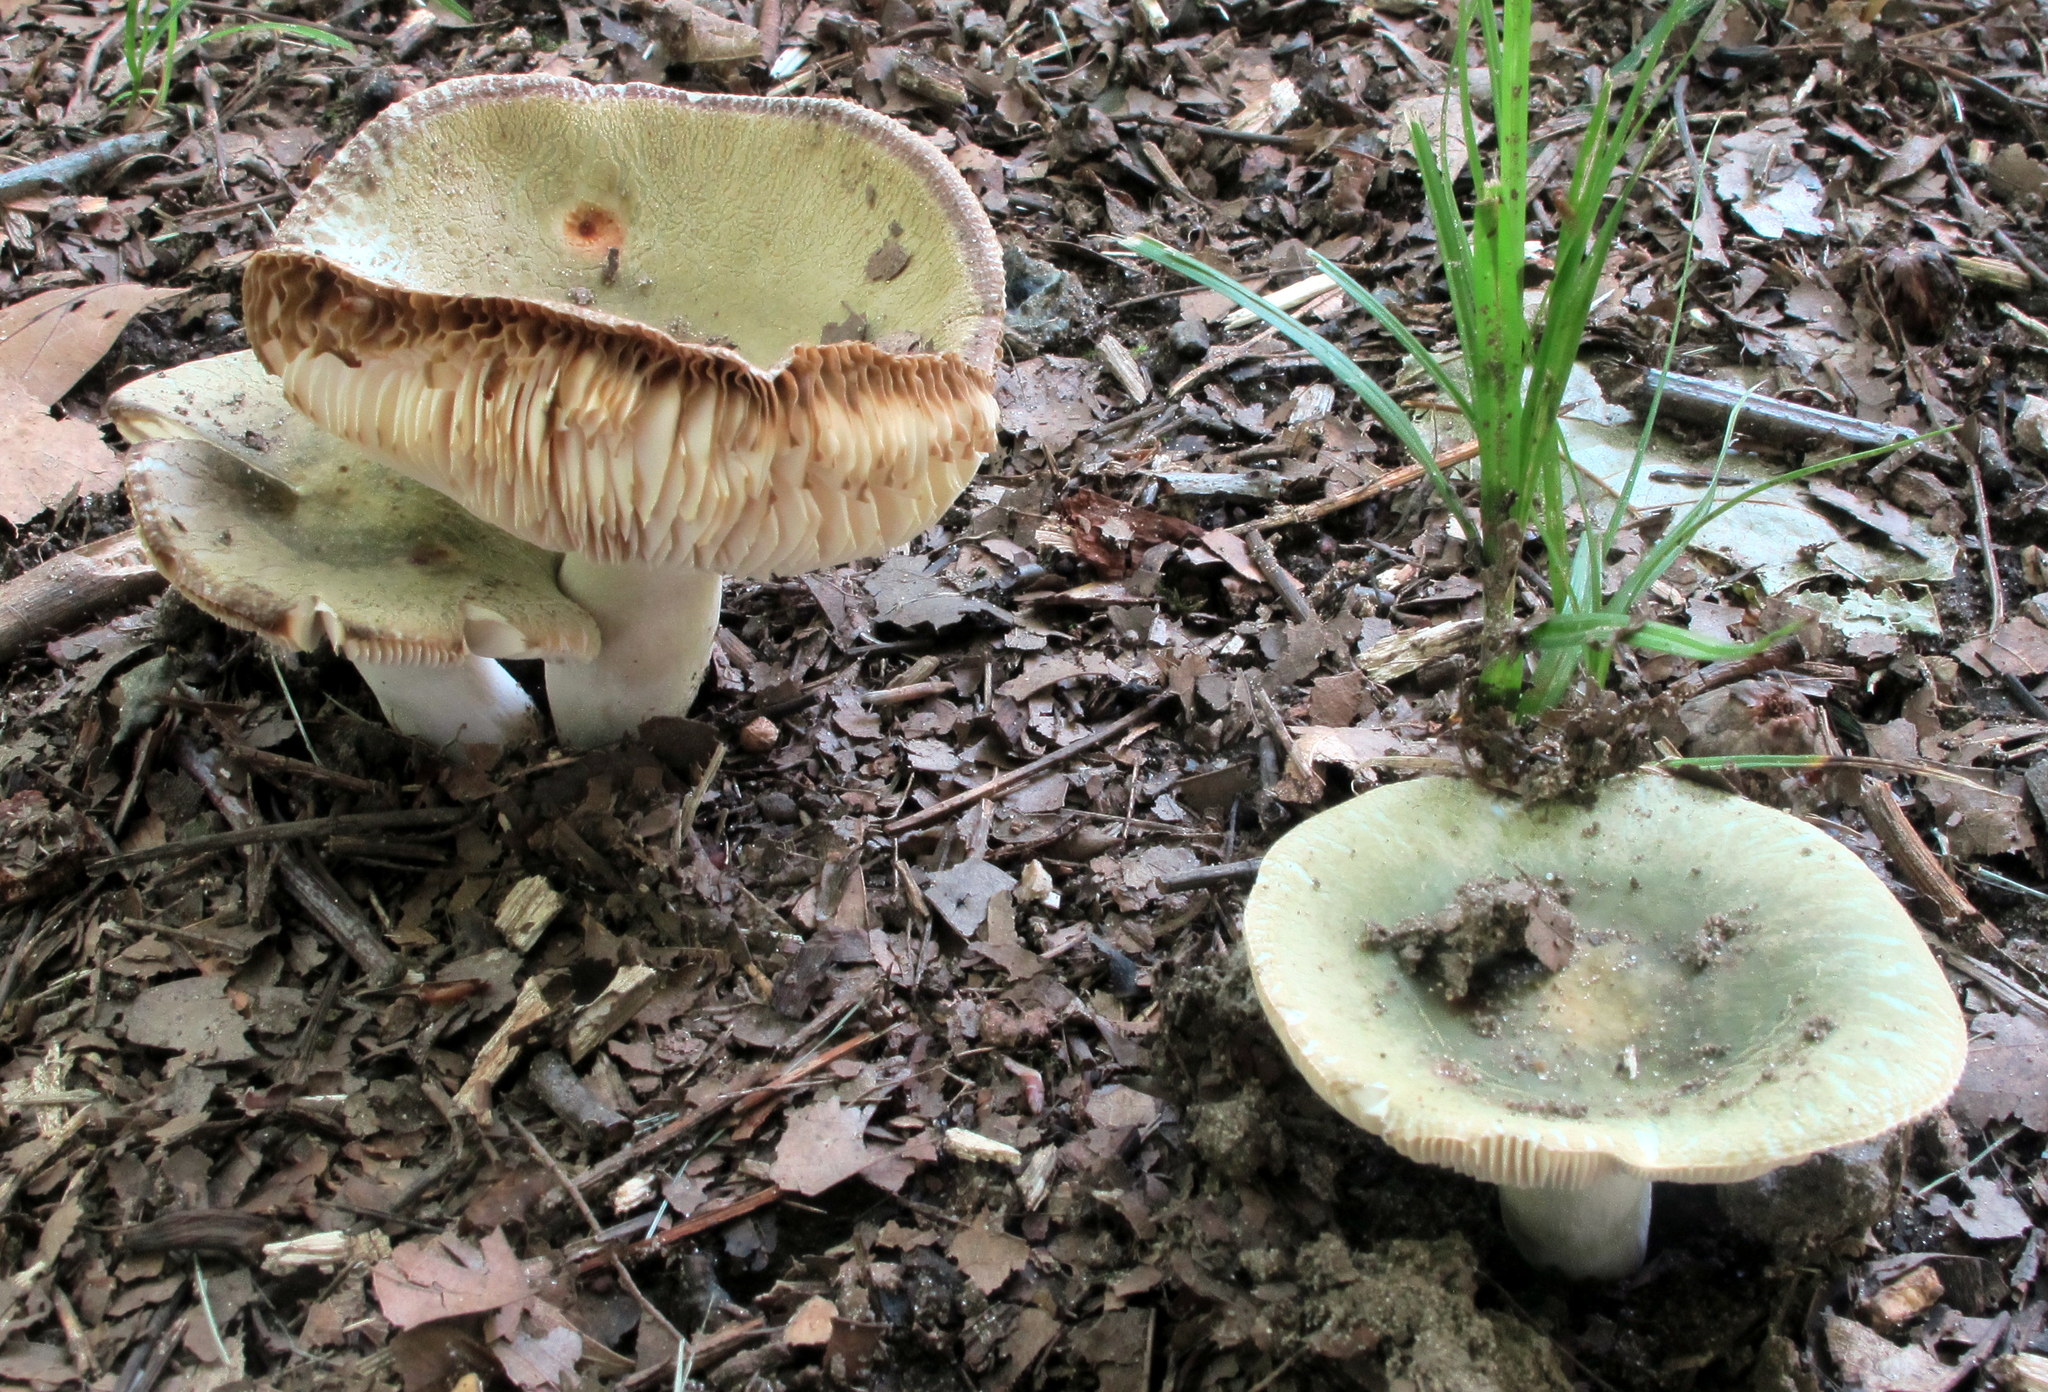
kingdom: Fungi
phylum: Basidiomycota
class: Agaricomycetes
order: Russulales
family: Russulaceae
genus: Russula
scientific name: Russula parvovirescens
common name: Blue-green cracking russula
